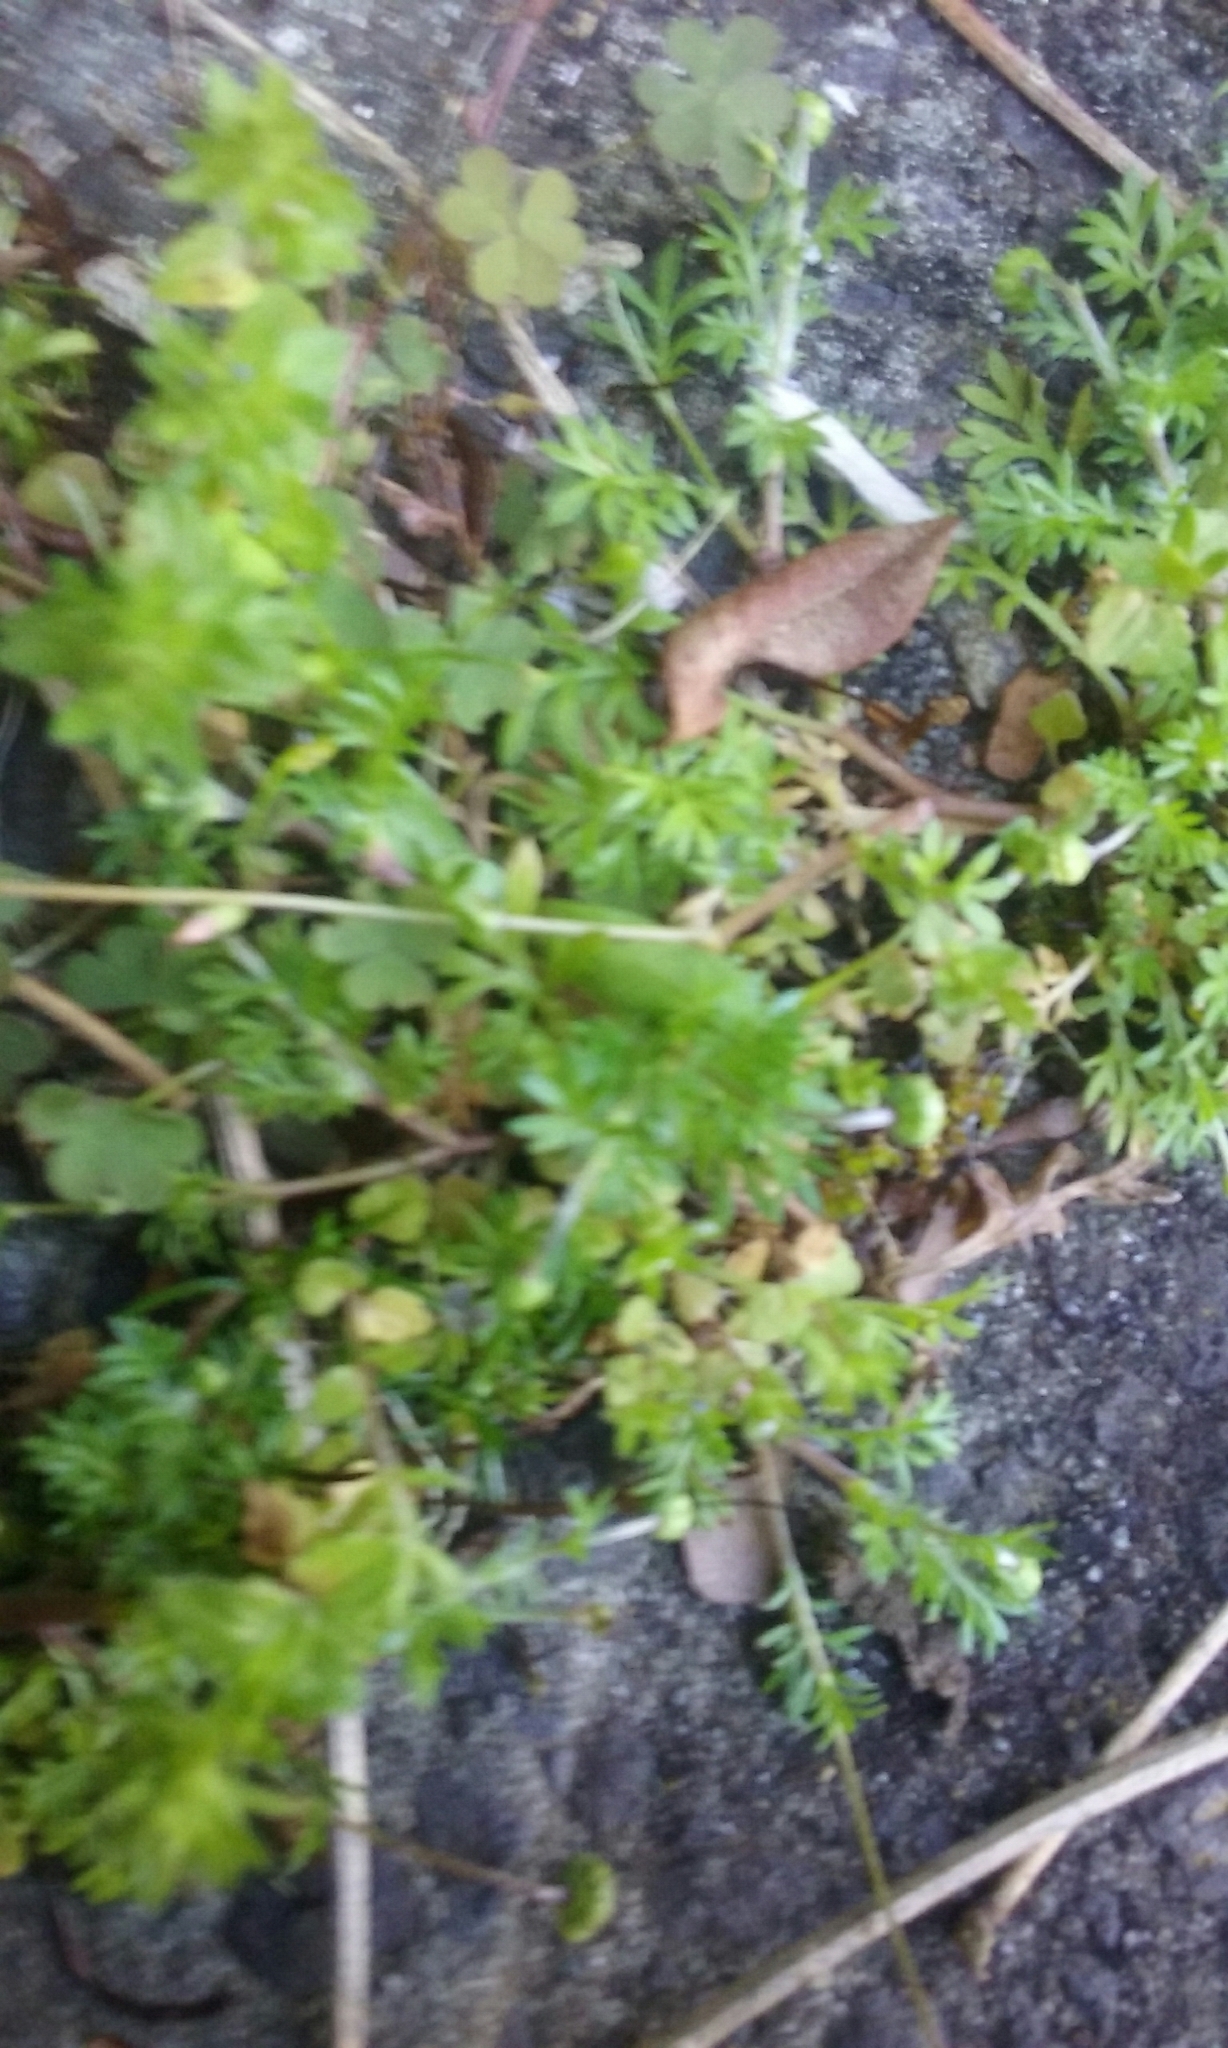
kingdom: Plantae
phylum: Tracheophyta
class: Magnoliopsida
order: Asterales
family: Asteraceae
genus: Cotula
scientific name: Cotula australis
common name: Australian waterbuttons
